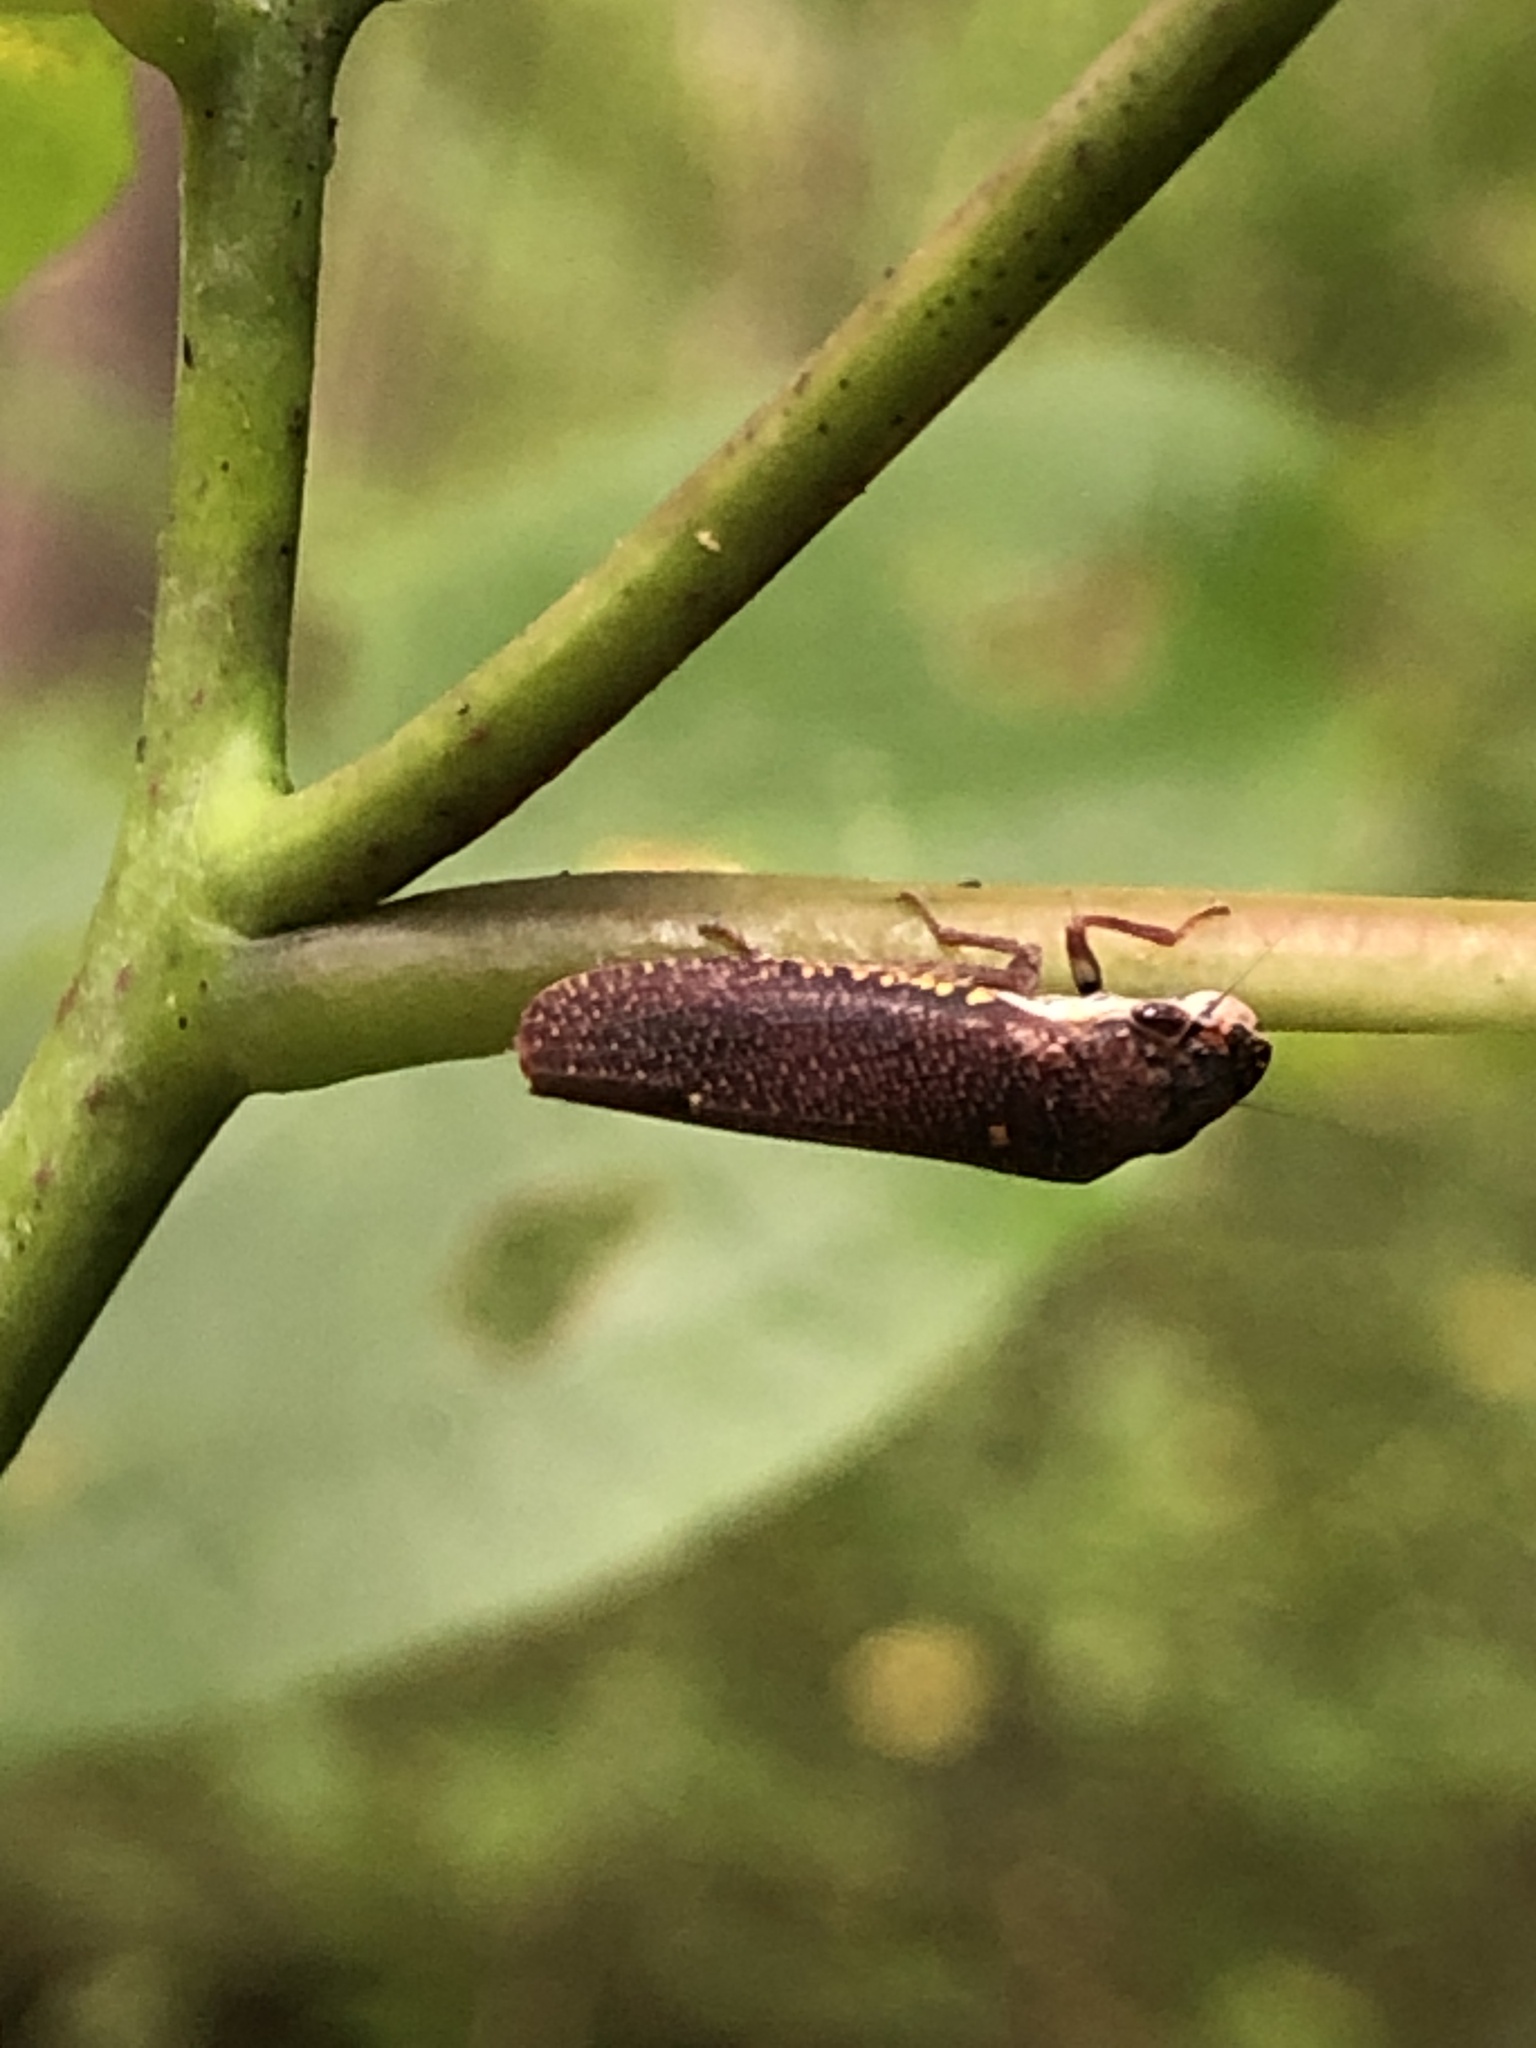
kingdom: Animalia
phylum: Arthropoda
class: Insecta
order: Hemiptera
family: Cicadellidae
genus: Paraulacizes
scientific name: Paraulacizes irrorata
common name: Speckled sharpshooter
